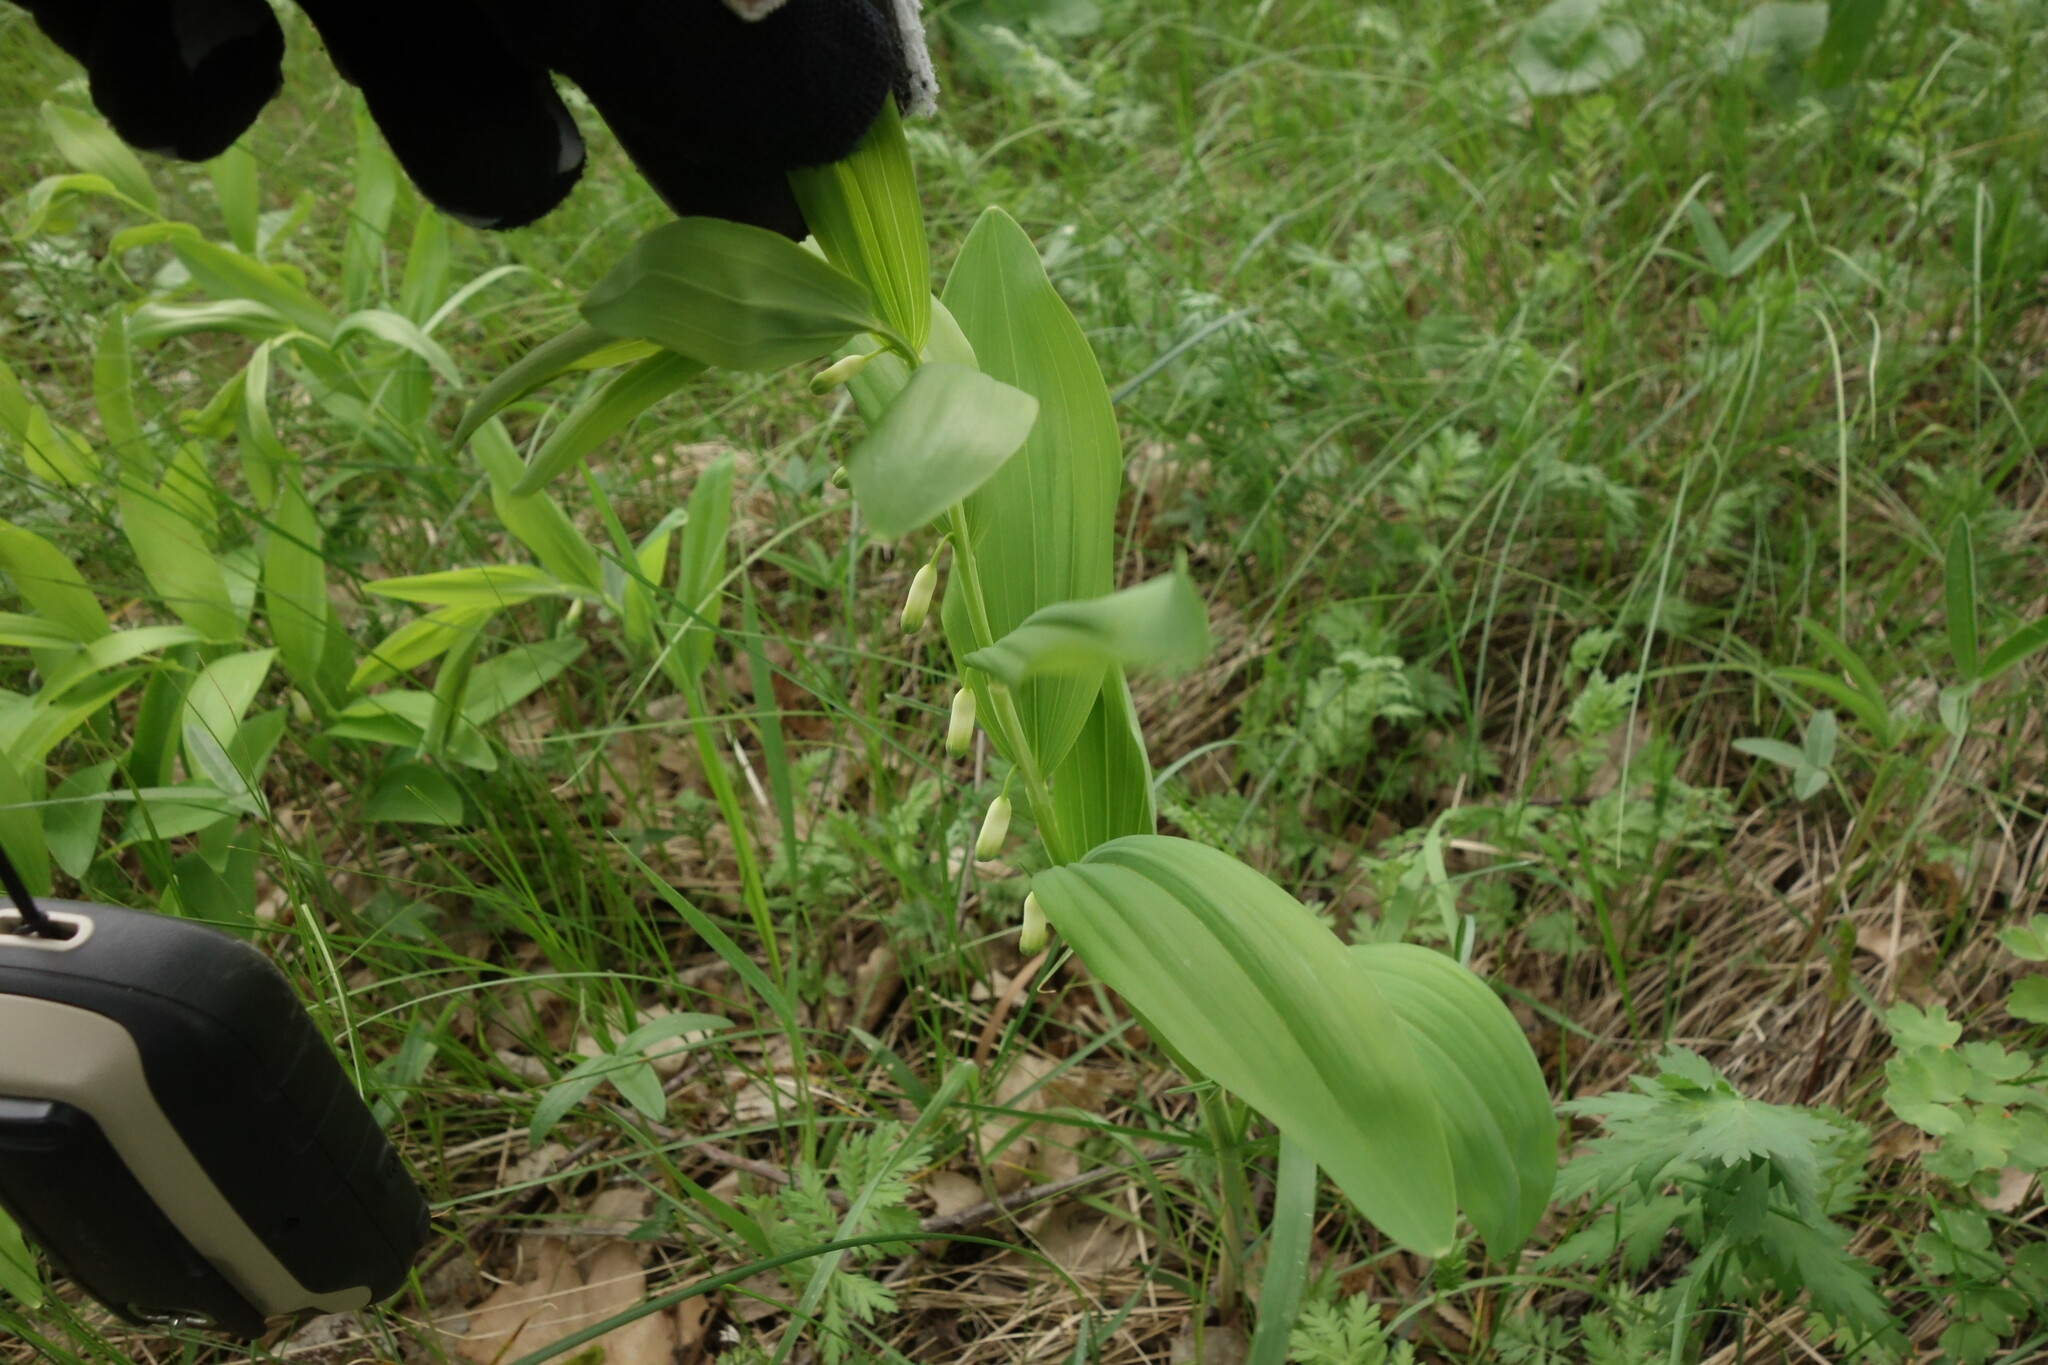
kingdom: Plantae
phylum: Tracheophyta
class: Liliopsida
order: Asparagales
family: Asparagaceae
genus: Polygonatum
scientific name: Polygonatum odoratum
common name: Angular solomon's-seal
